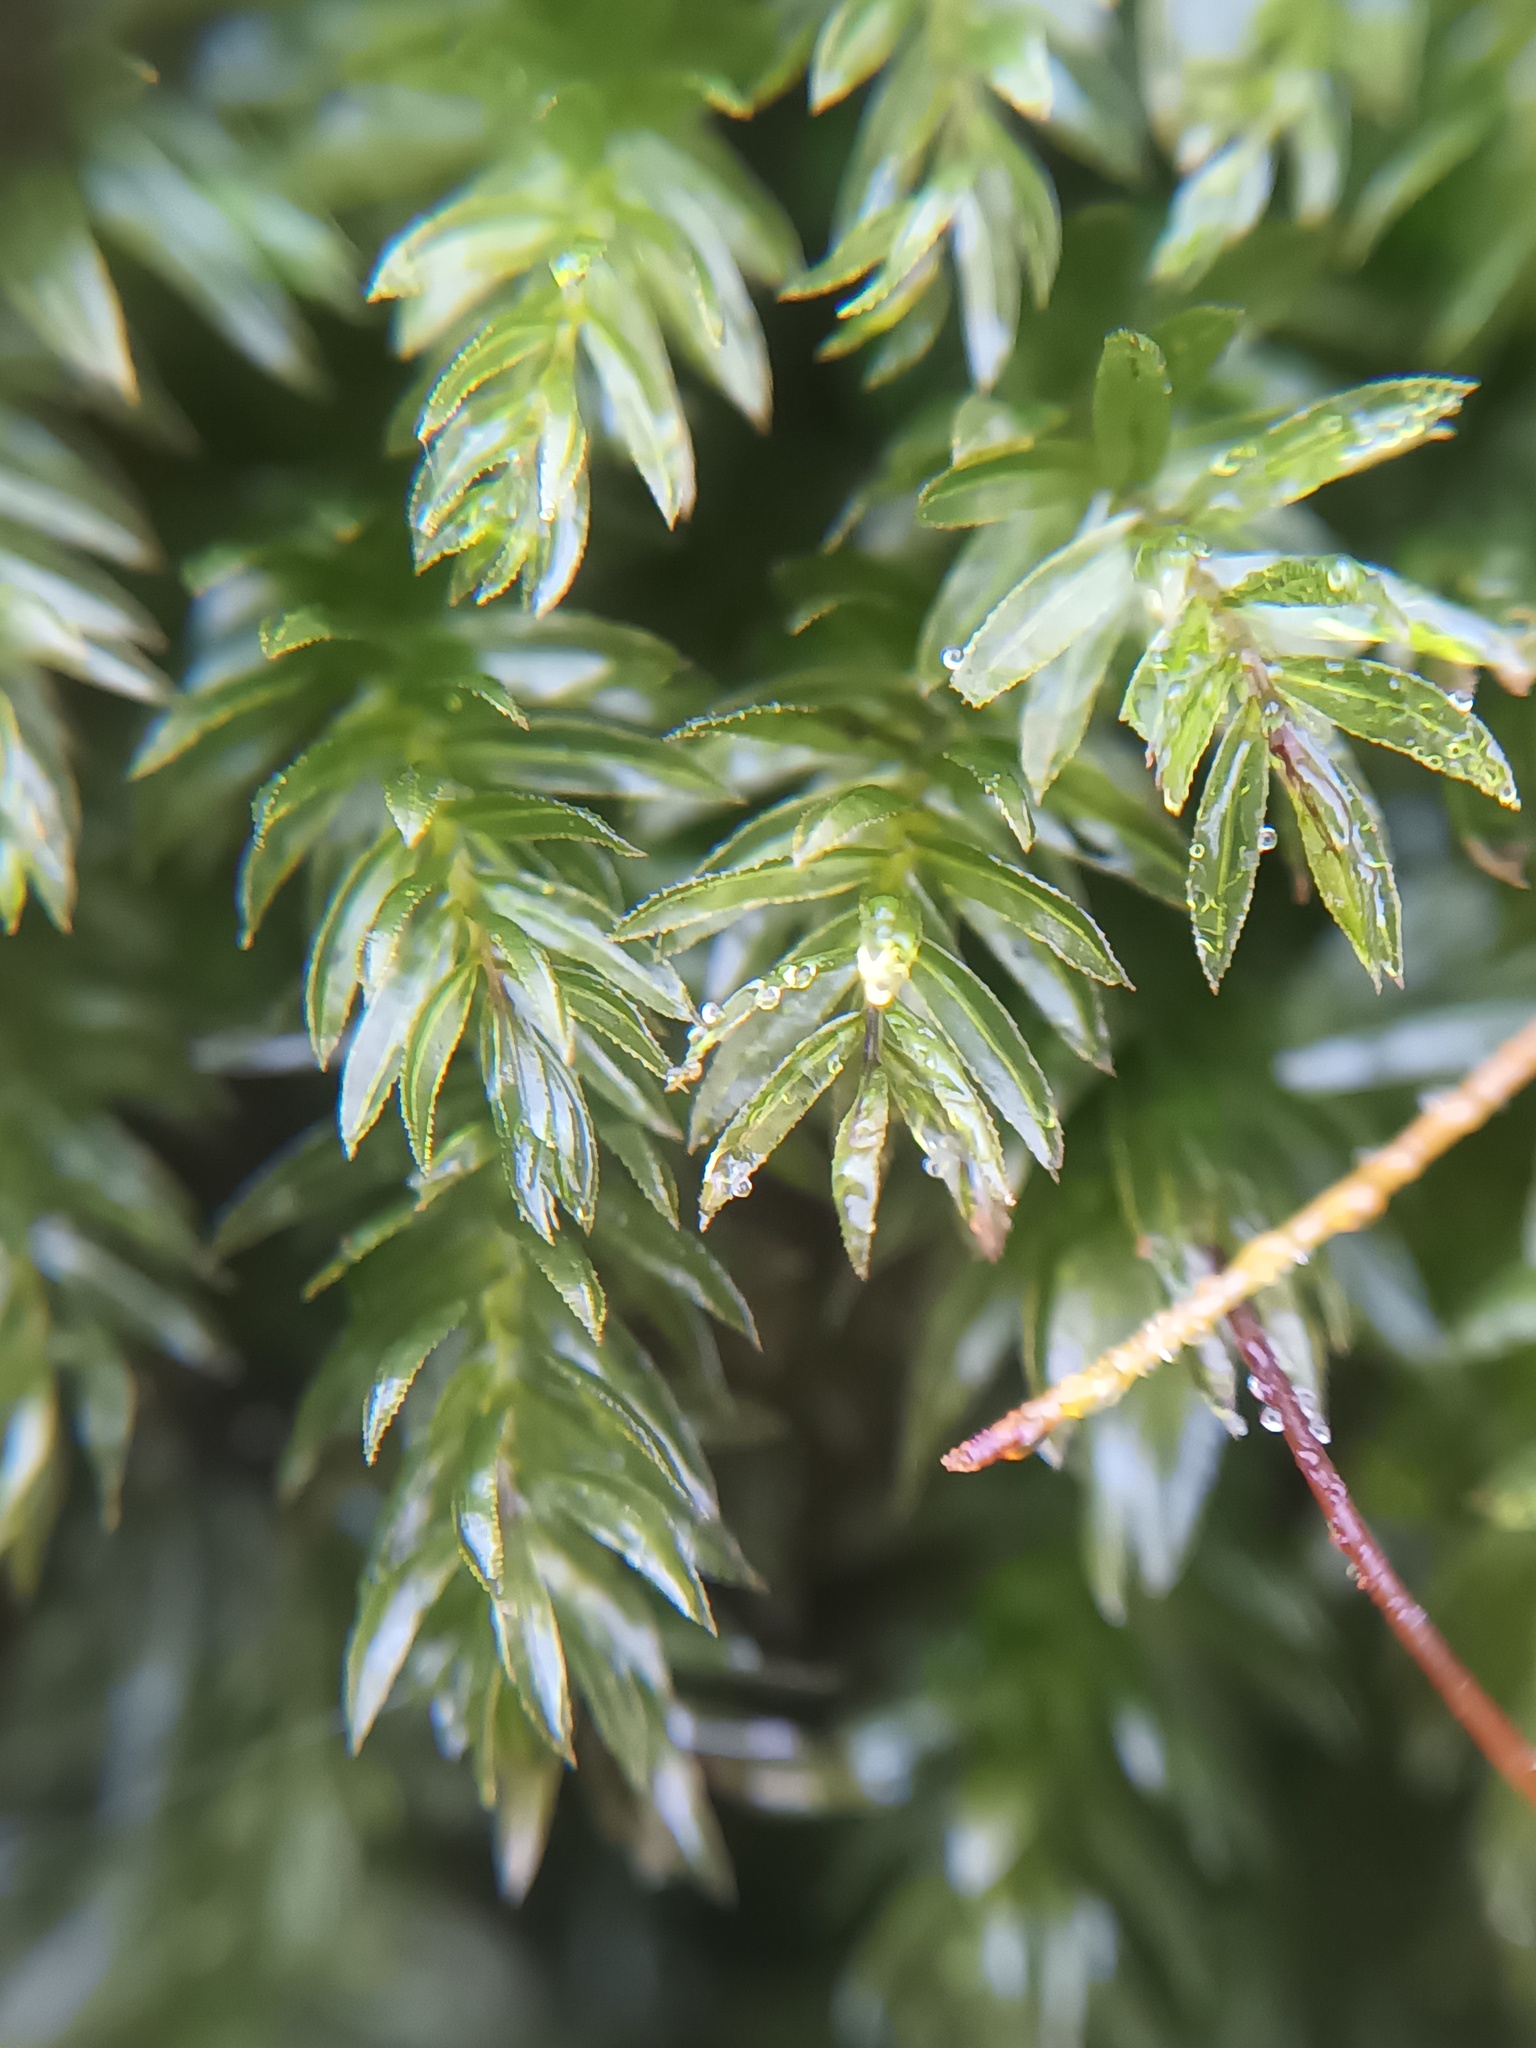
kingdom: Plantae
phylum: Bryophyta
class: Bryopsida
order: Bryales
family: Mniaceae
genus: Mnium
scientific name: Mnium hornum
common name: Swan's-neck leafy moss
